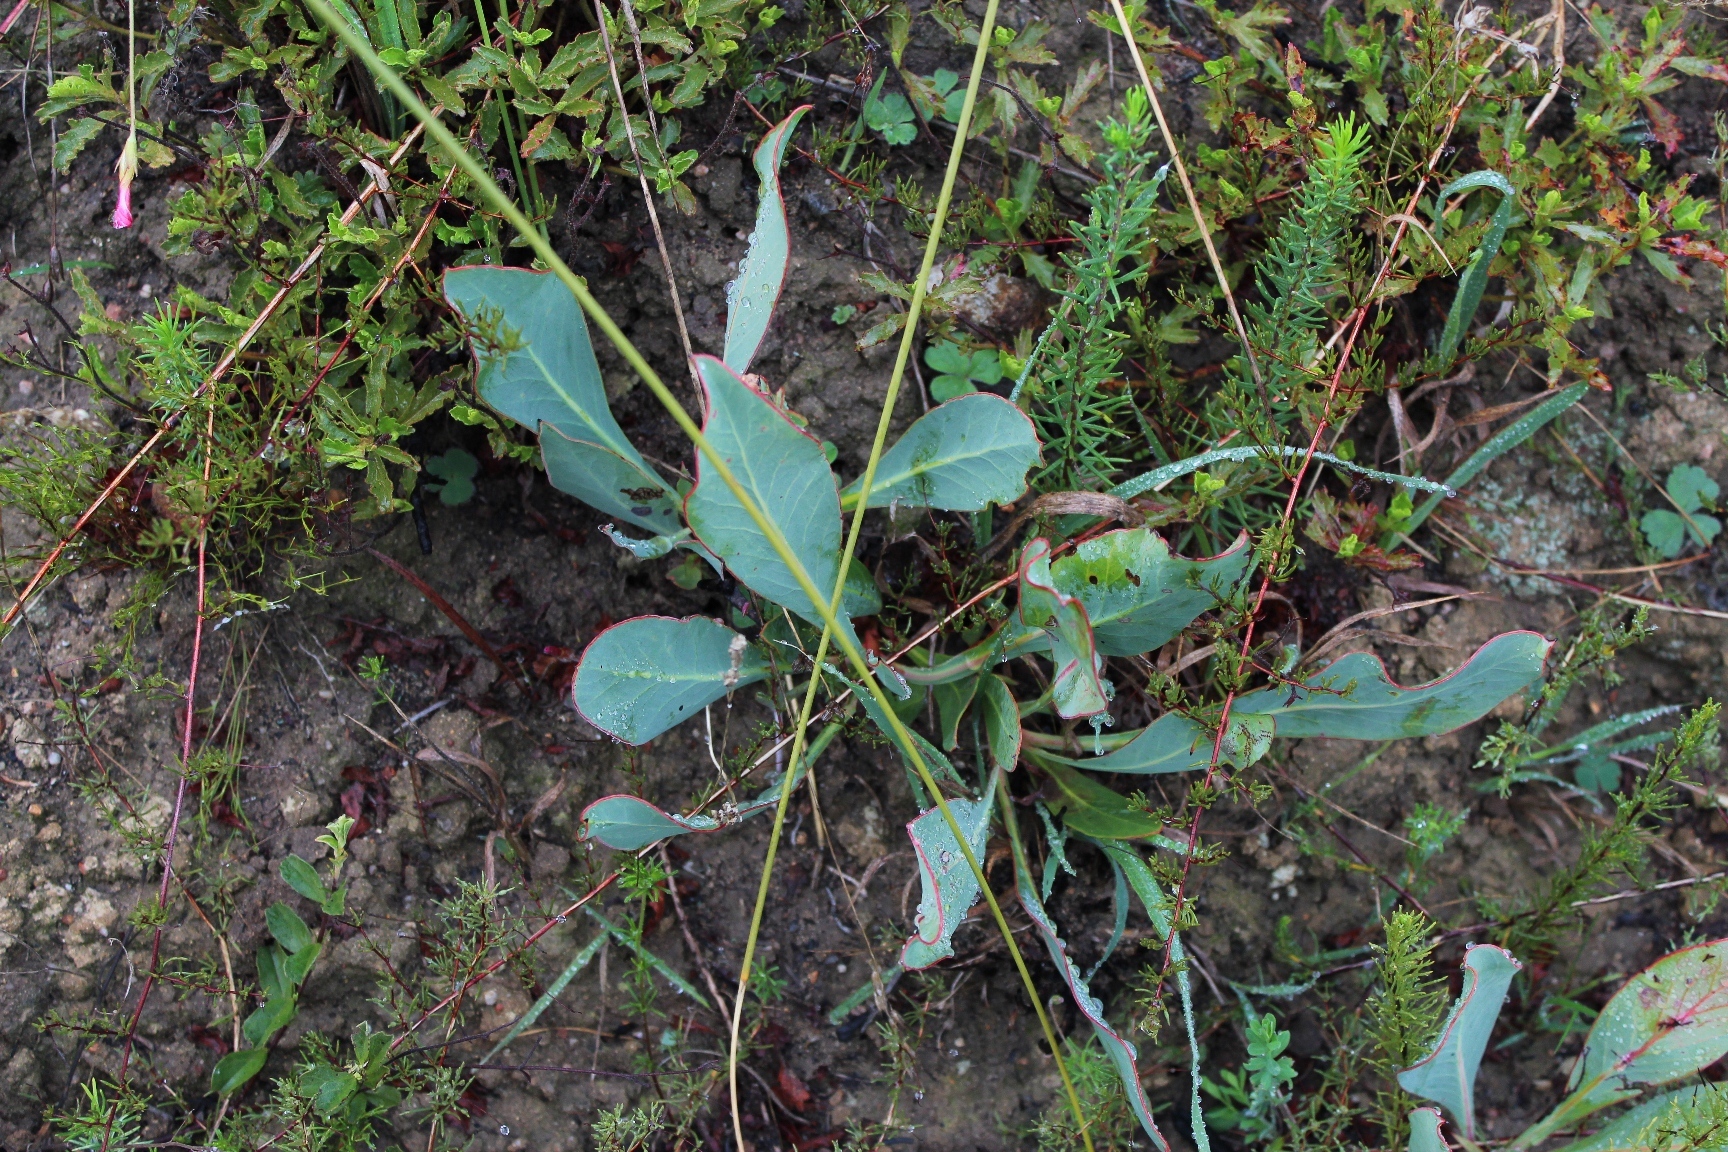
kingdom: Plantae
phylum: Tracheophyta
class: Magnoliopsida
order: Proteales
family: Proteaceae
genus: Protea
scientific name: Protea acaulos
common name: Common ground sugarbush
